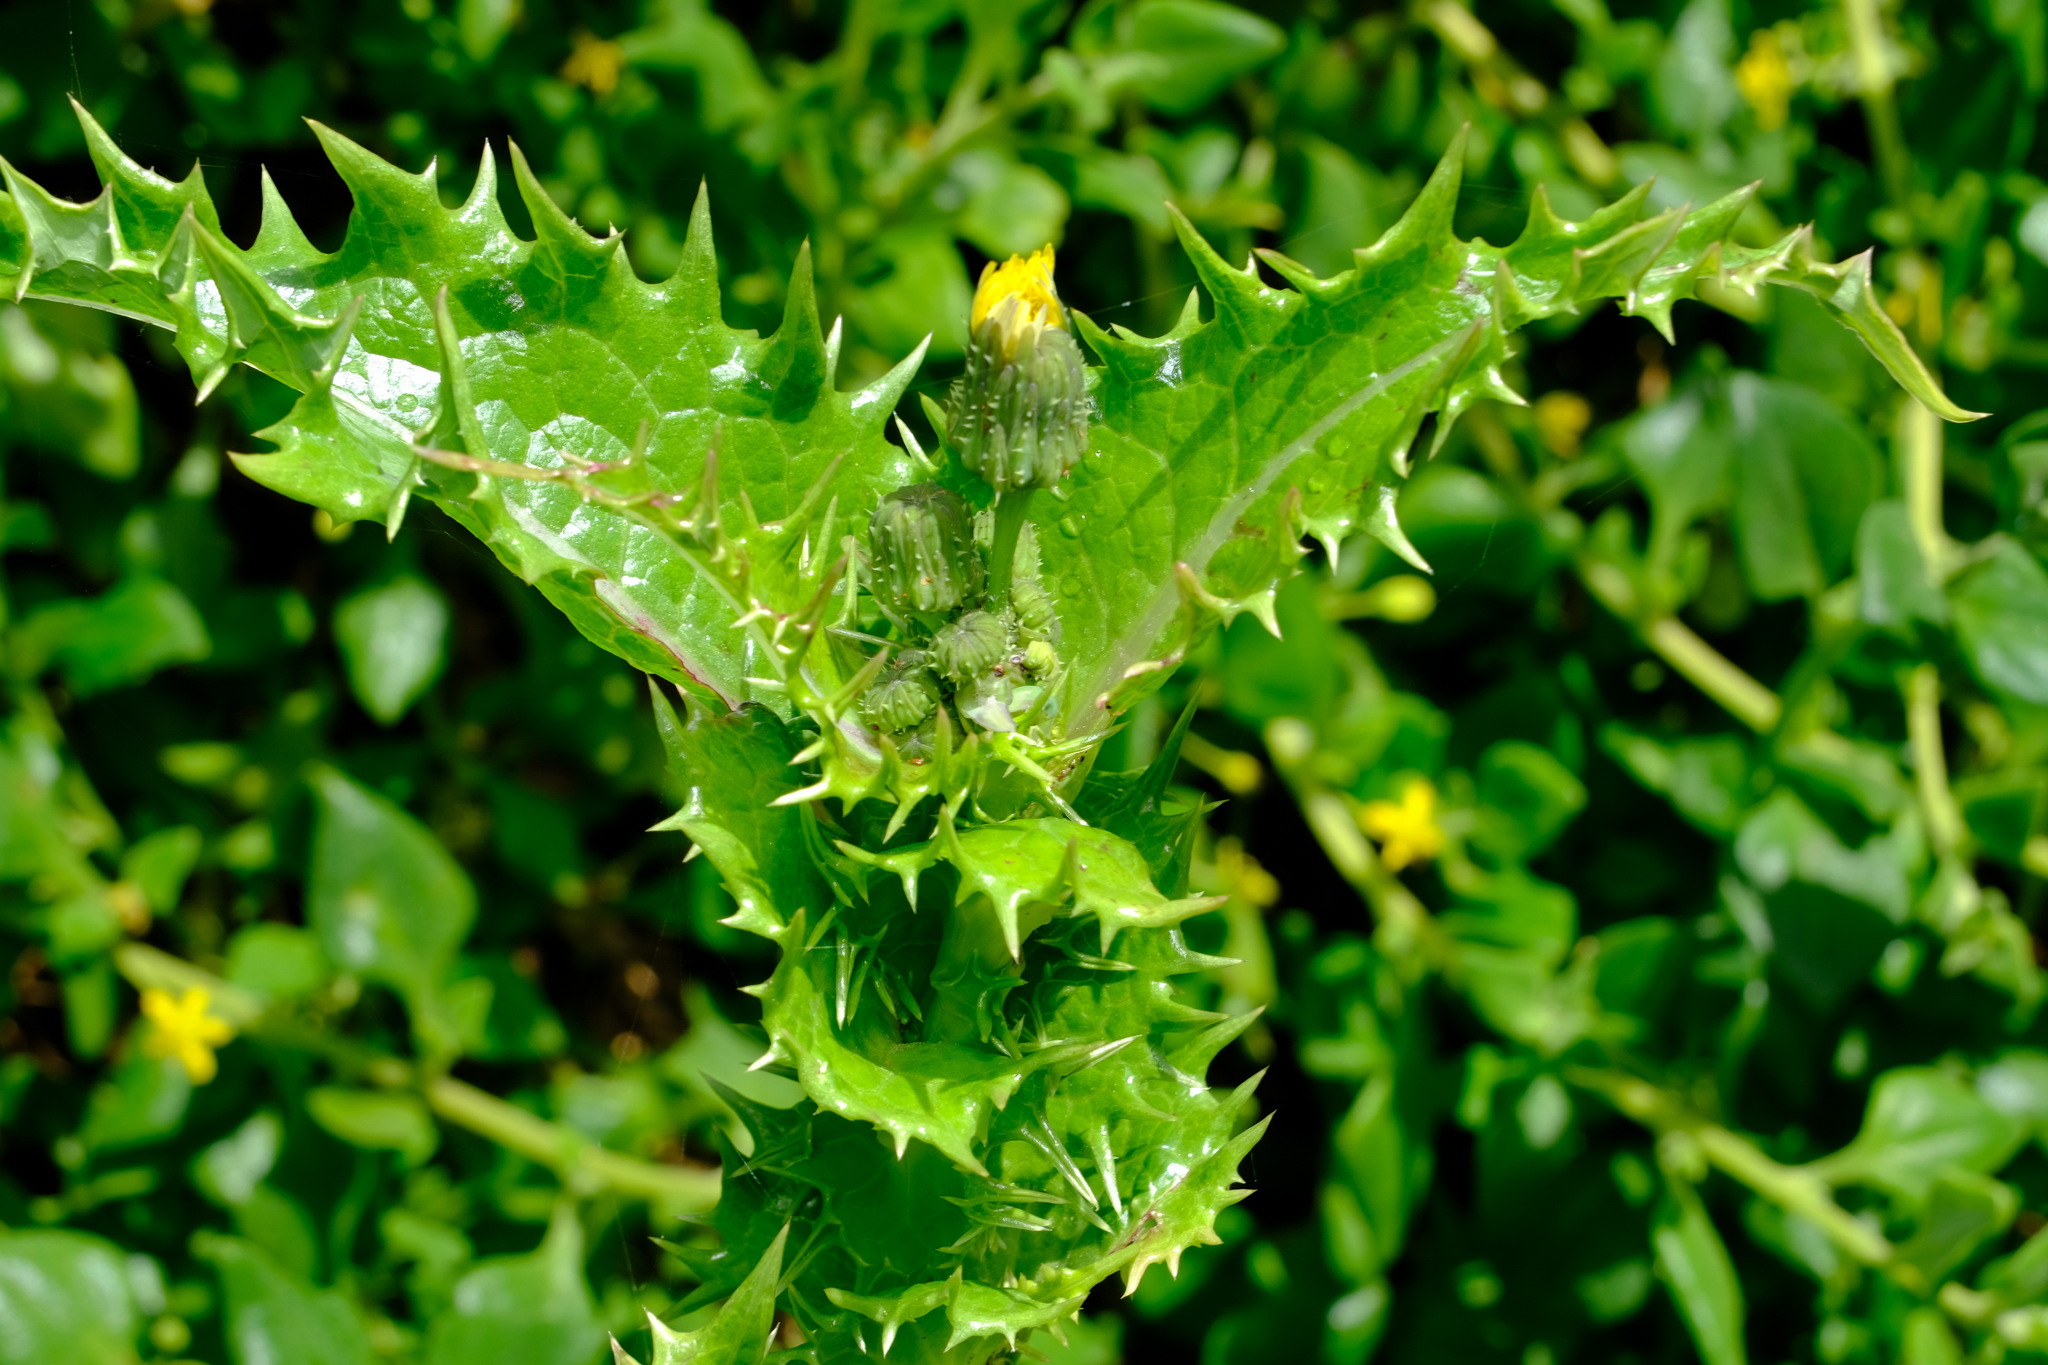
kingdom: Plantae
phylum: Tracheophyta
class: Magnoliopsida
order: Asterales
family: Asteraceae
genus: Sonchus
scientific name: Sonchus asper
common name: Prickly sow-thistle
